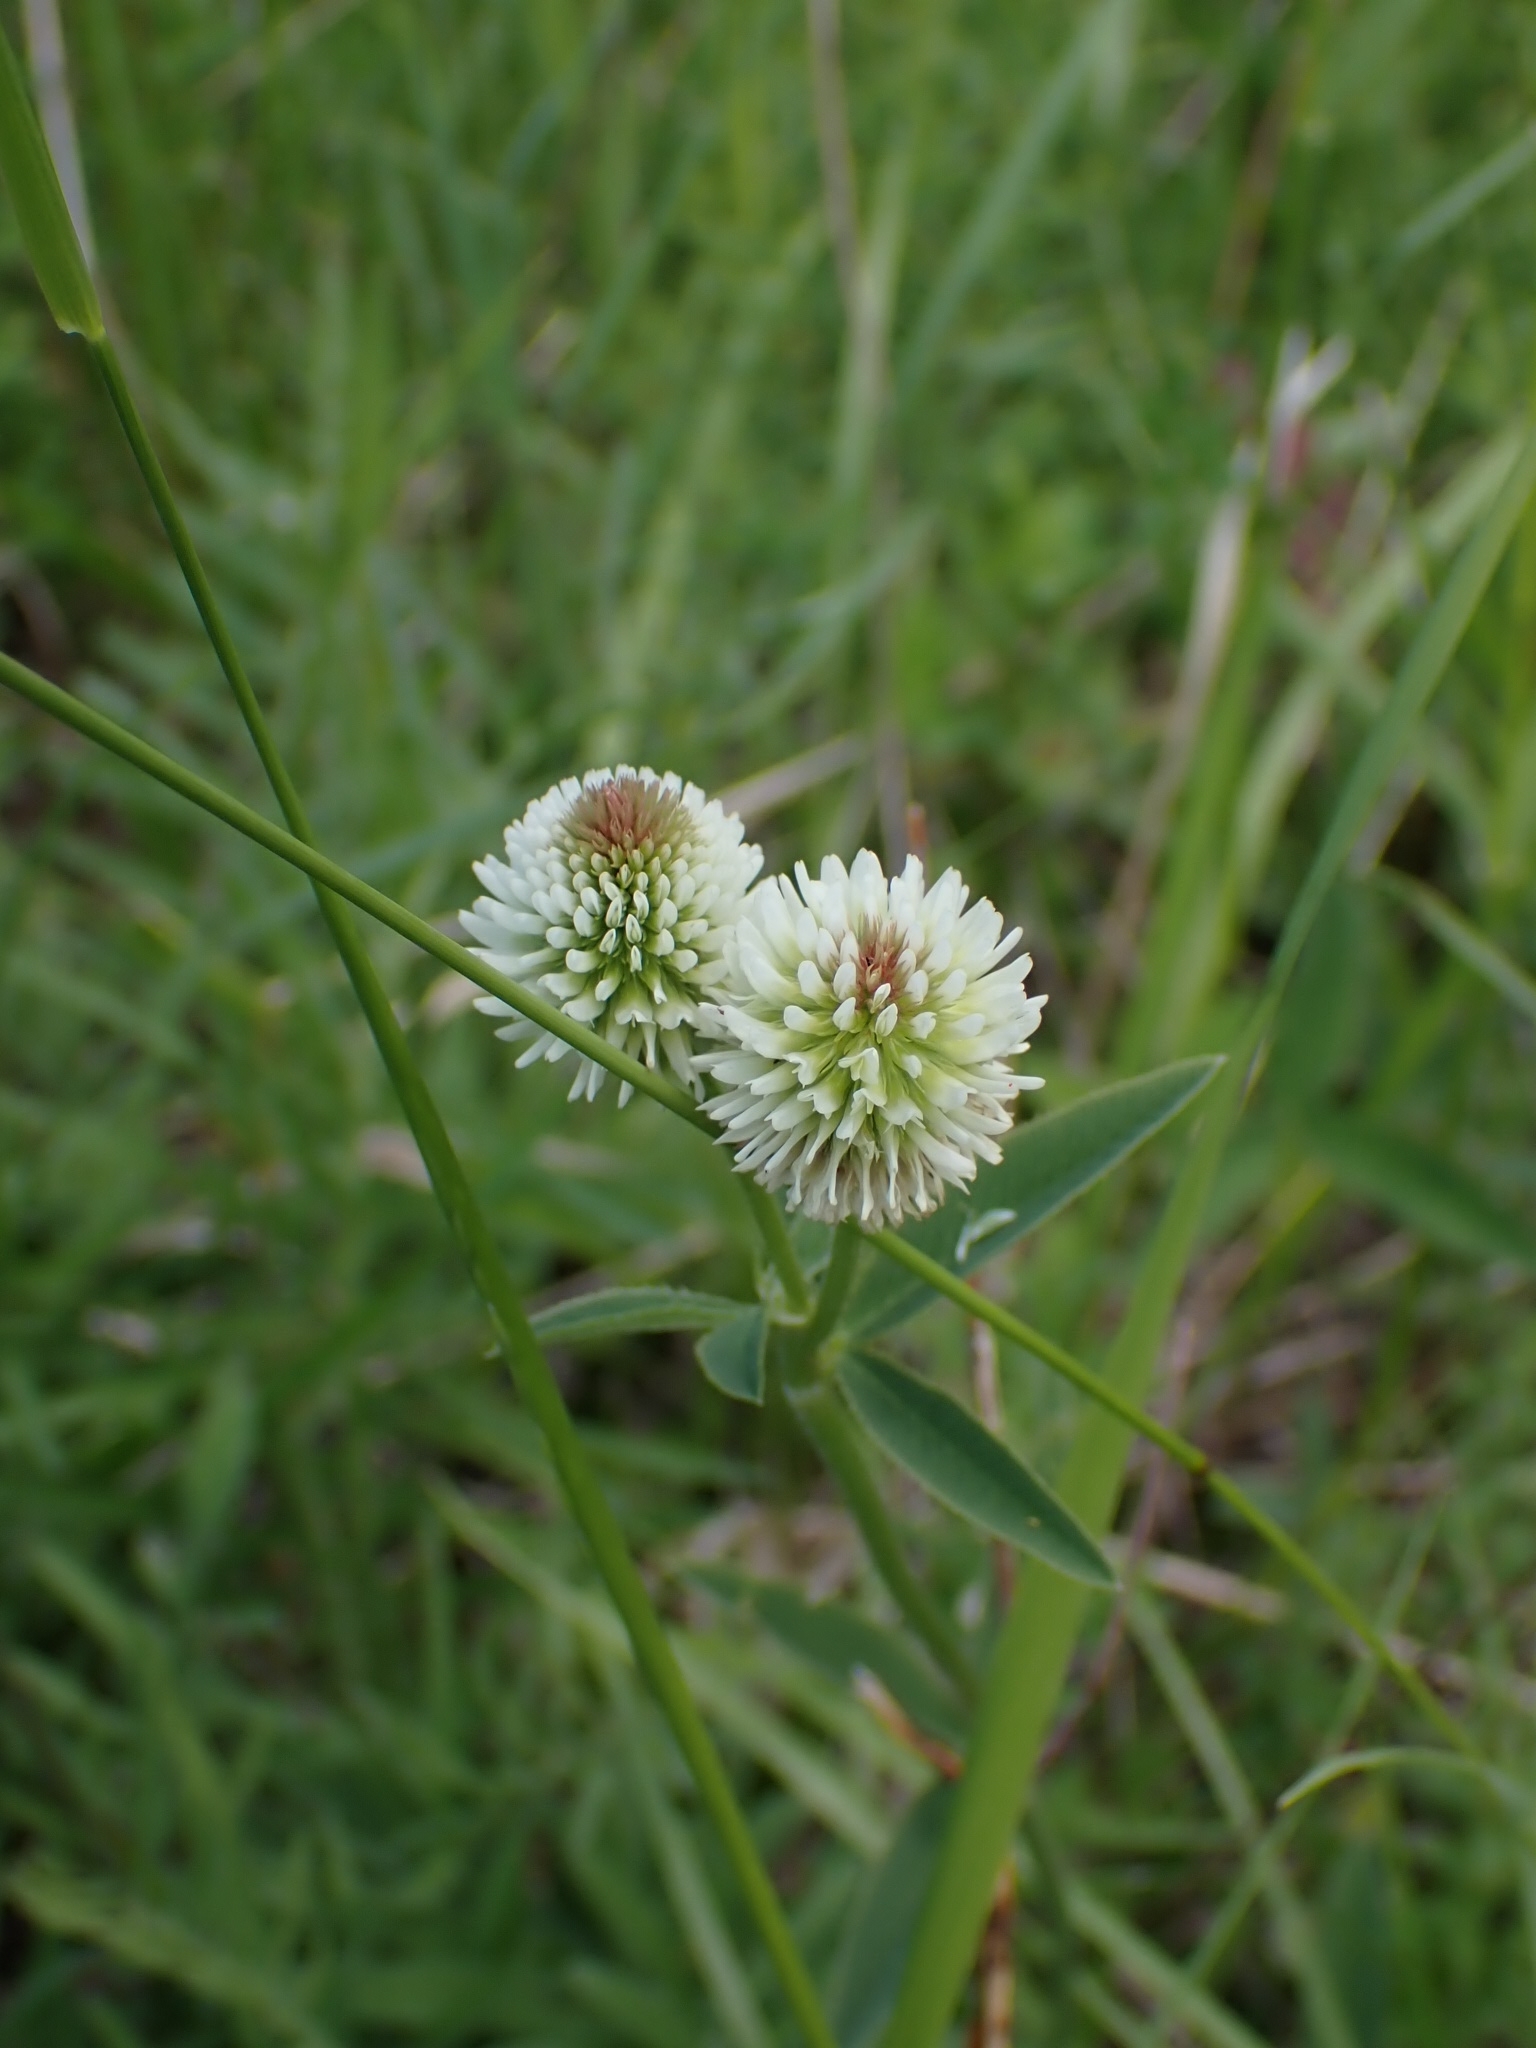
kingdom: Plantae
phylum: Tracheophyta
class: Magnoliopsida
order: Fabales
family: Fabaceae
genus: Trifolium
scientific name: Trifolium montanum
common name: Mountain clover
